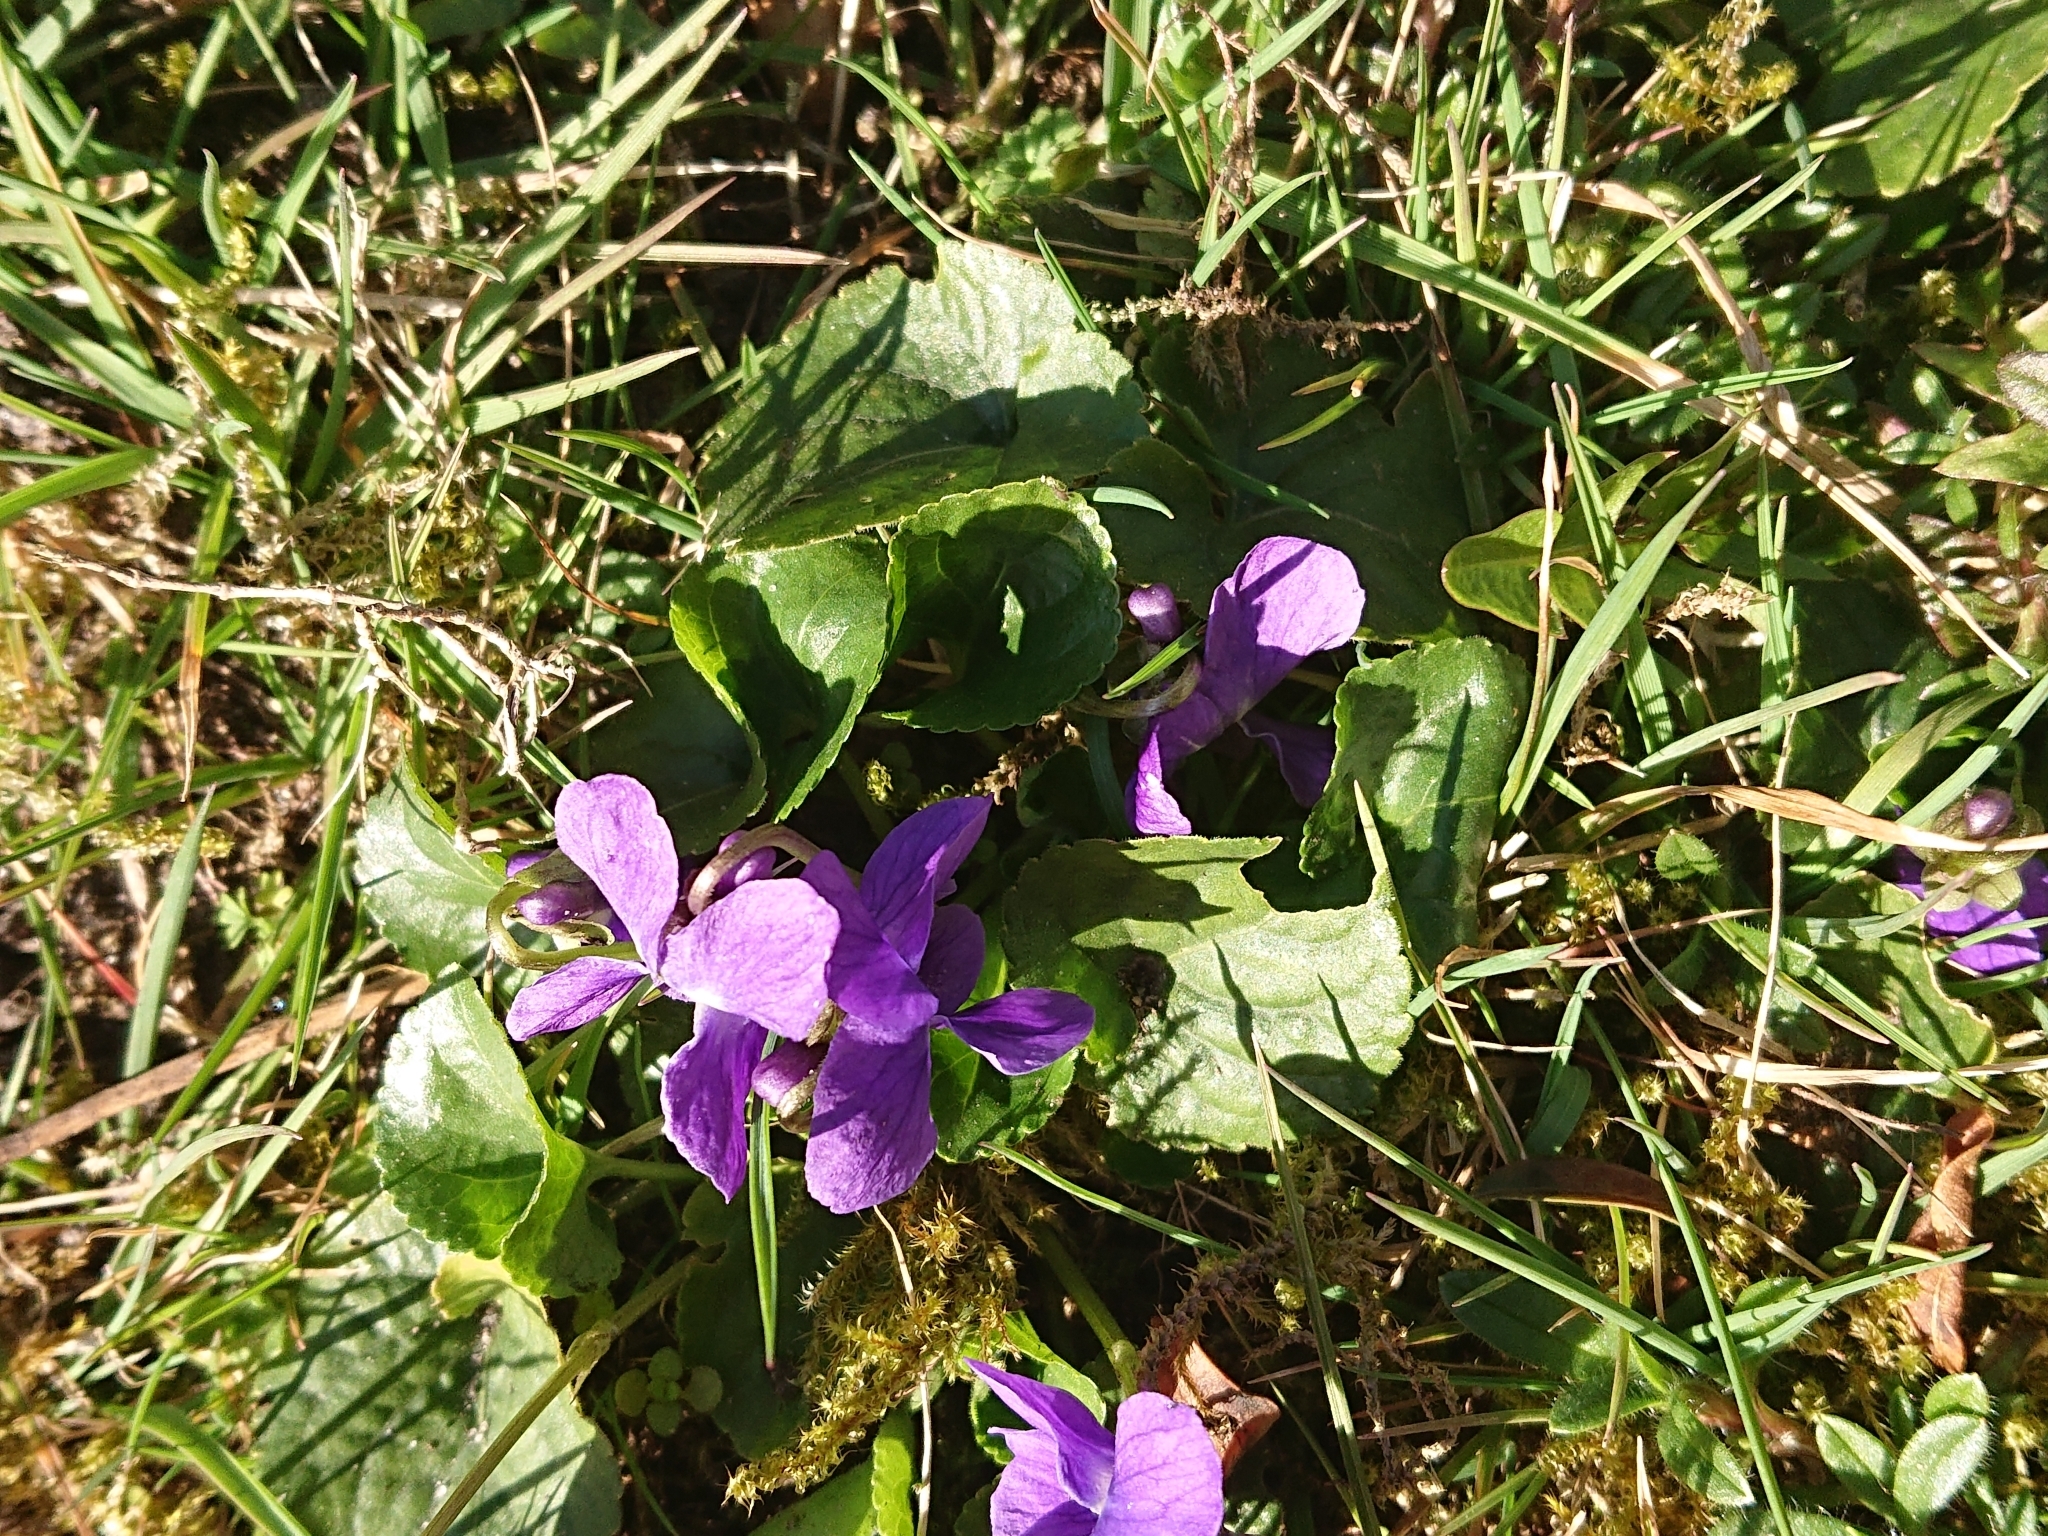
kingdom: Plantae
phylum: Tracheophyta
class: Magnoliopsida
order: Malpighiales
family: Violaceae
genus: Viola
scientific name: Viola odorata
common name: Sweet violet
